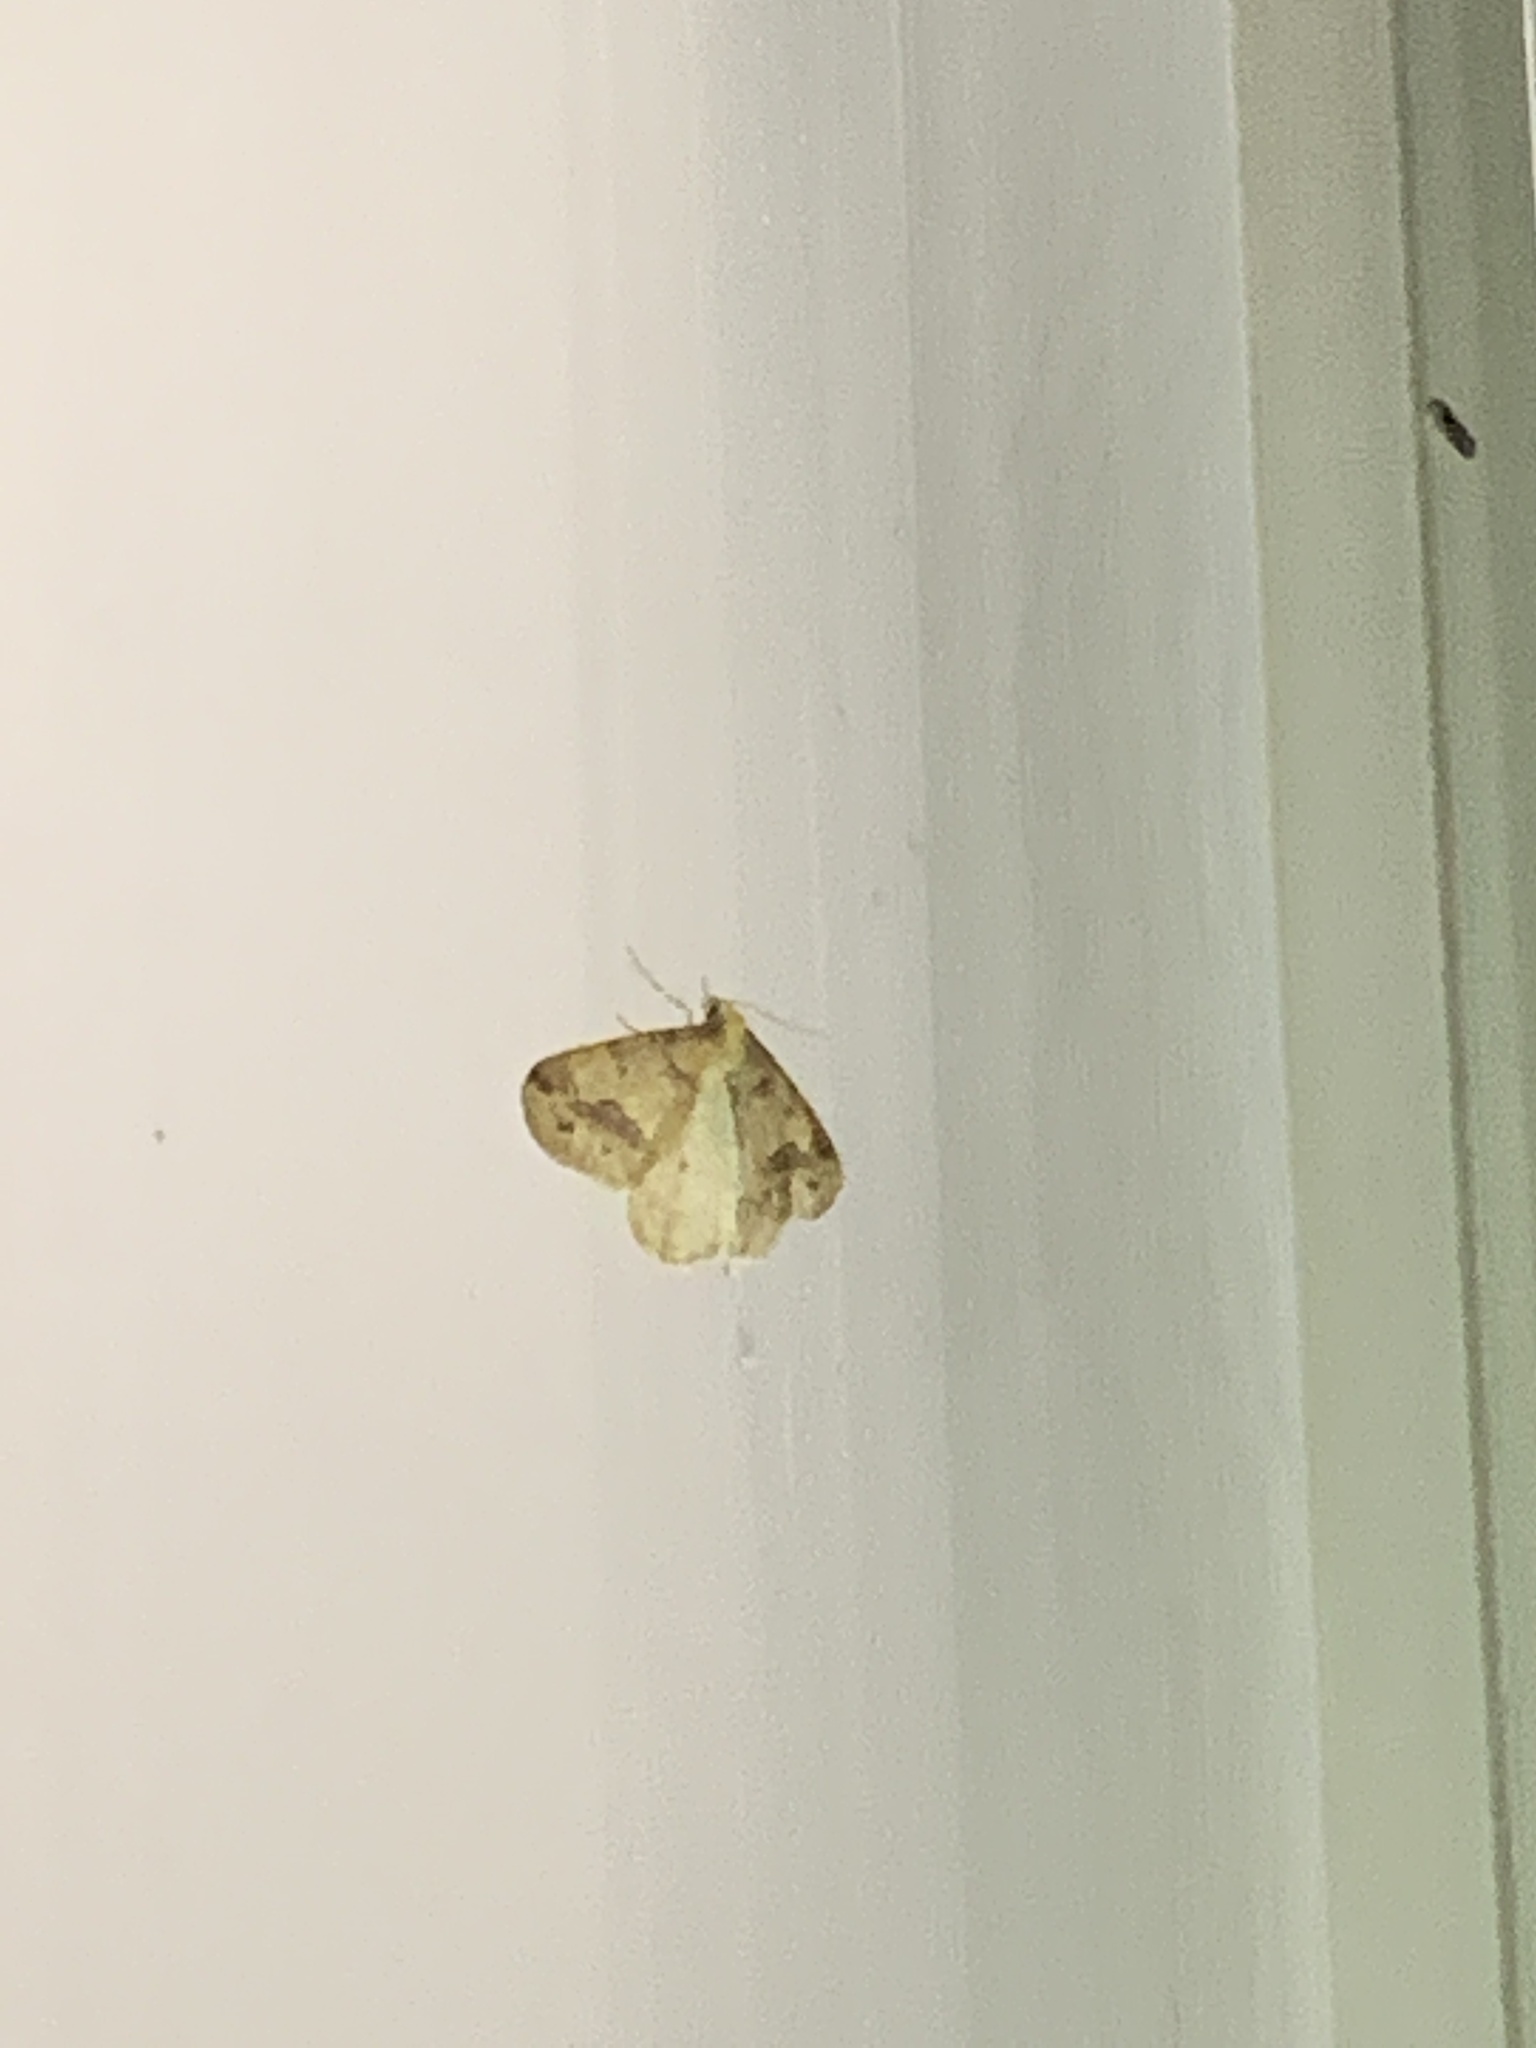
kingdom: Animalia
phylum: Arthropoda
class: Insecta
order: Lepidoptera
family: Geometridae
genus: Erannis
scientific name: Erannis tiliaria
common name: Linden looper
